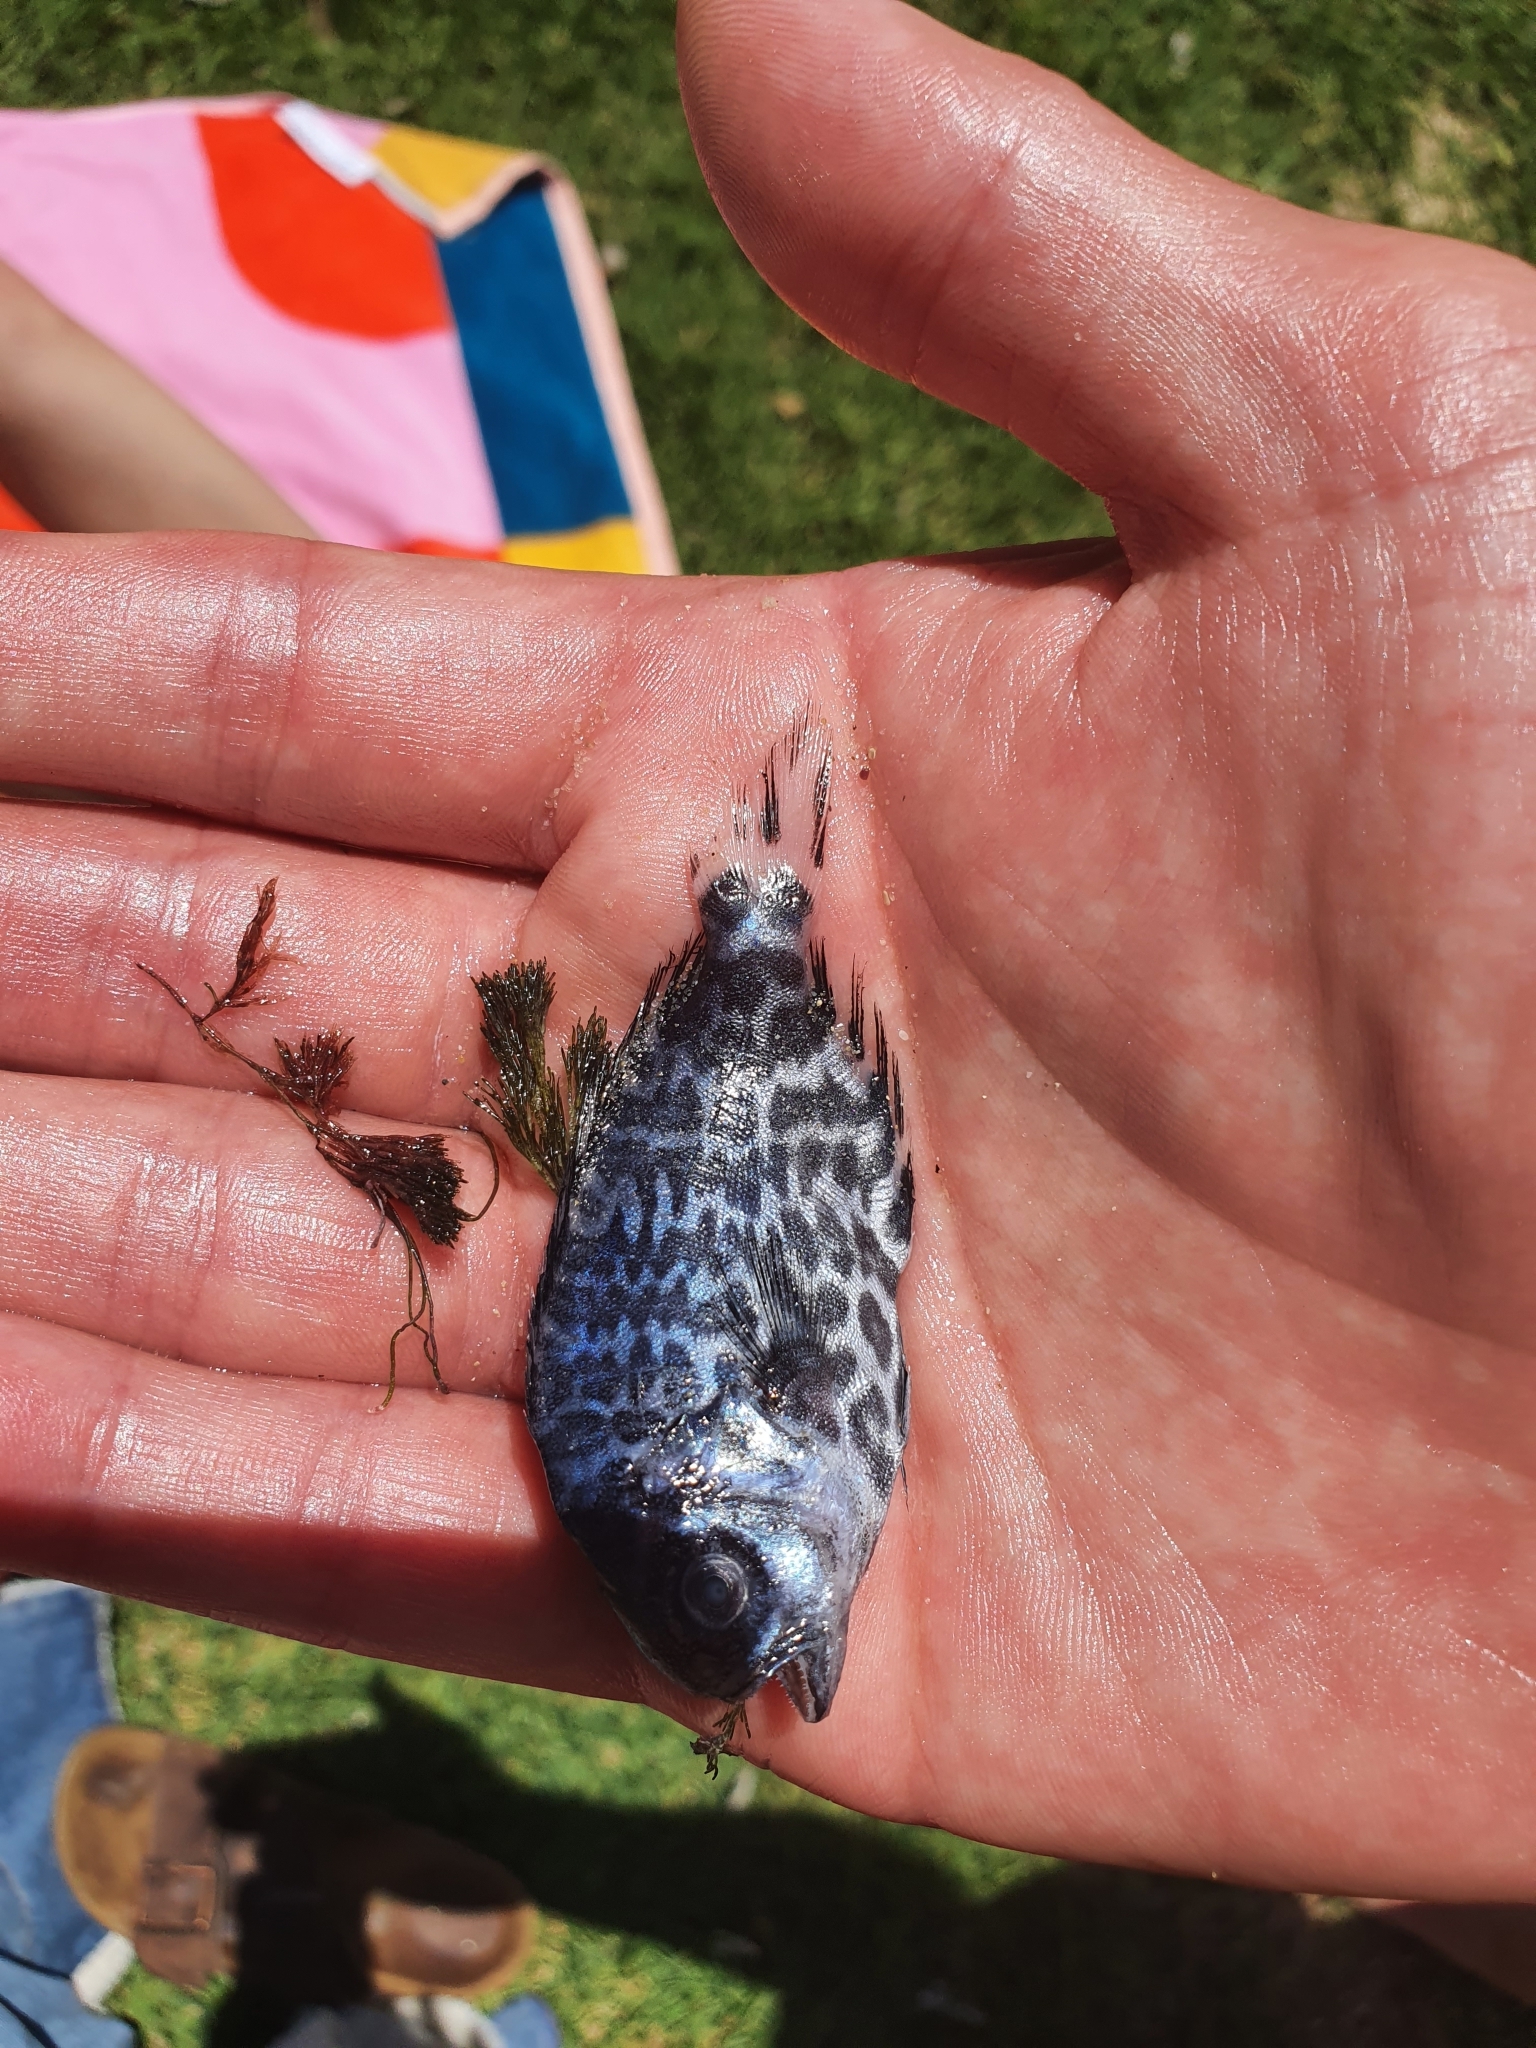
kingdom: Animalia
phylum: Chordata
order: Perciformes
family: Centrolophidae
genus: Schedophilus
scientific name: Schedophilus maculatus
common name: Pelagic butterfish
